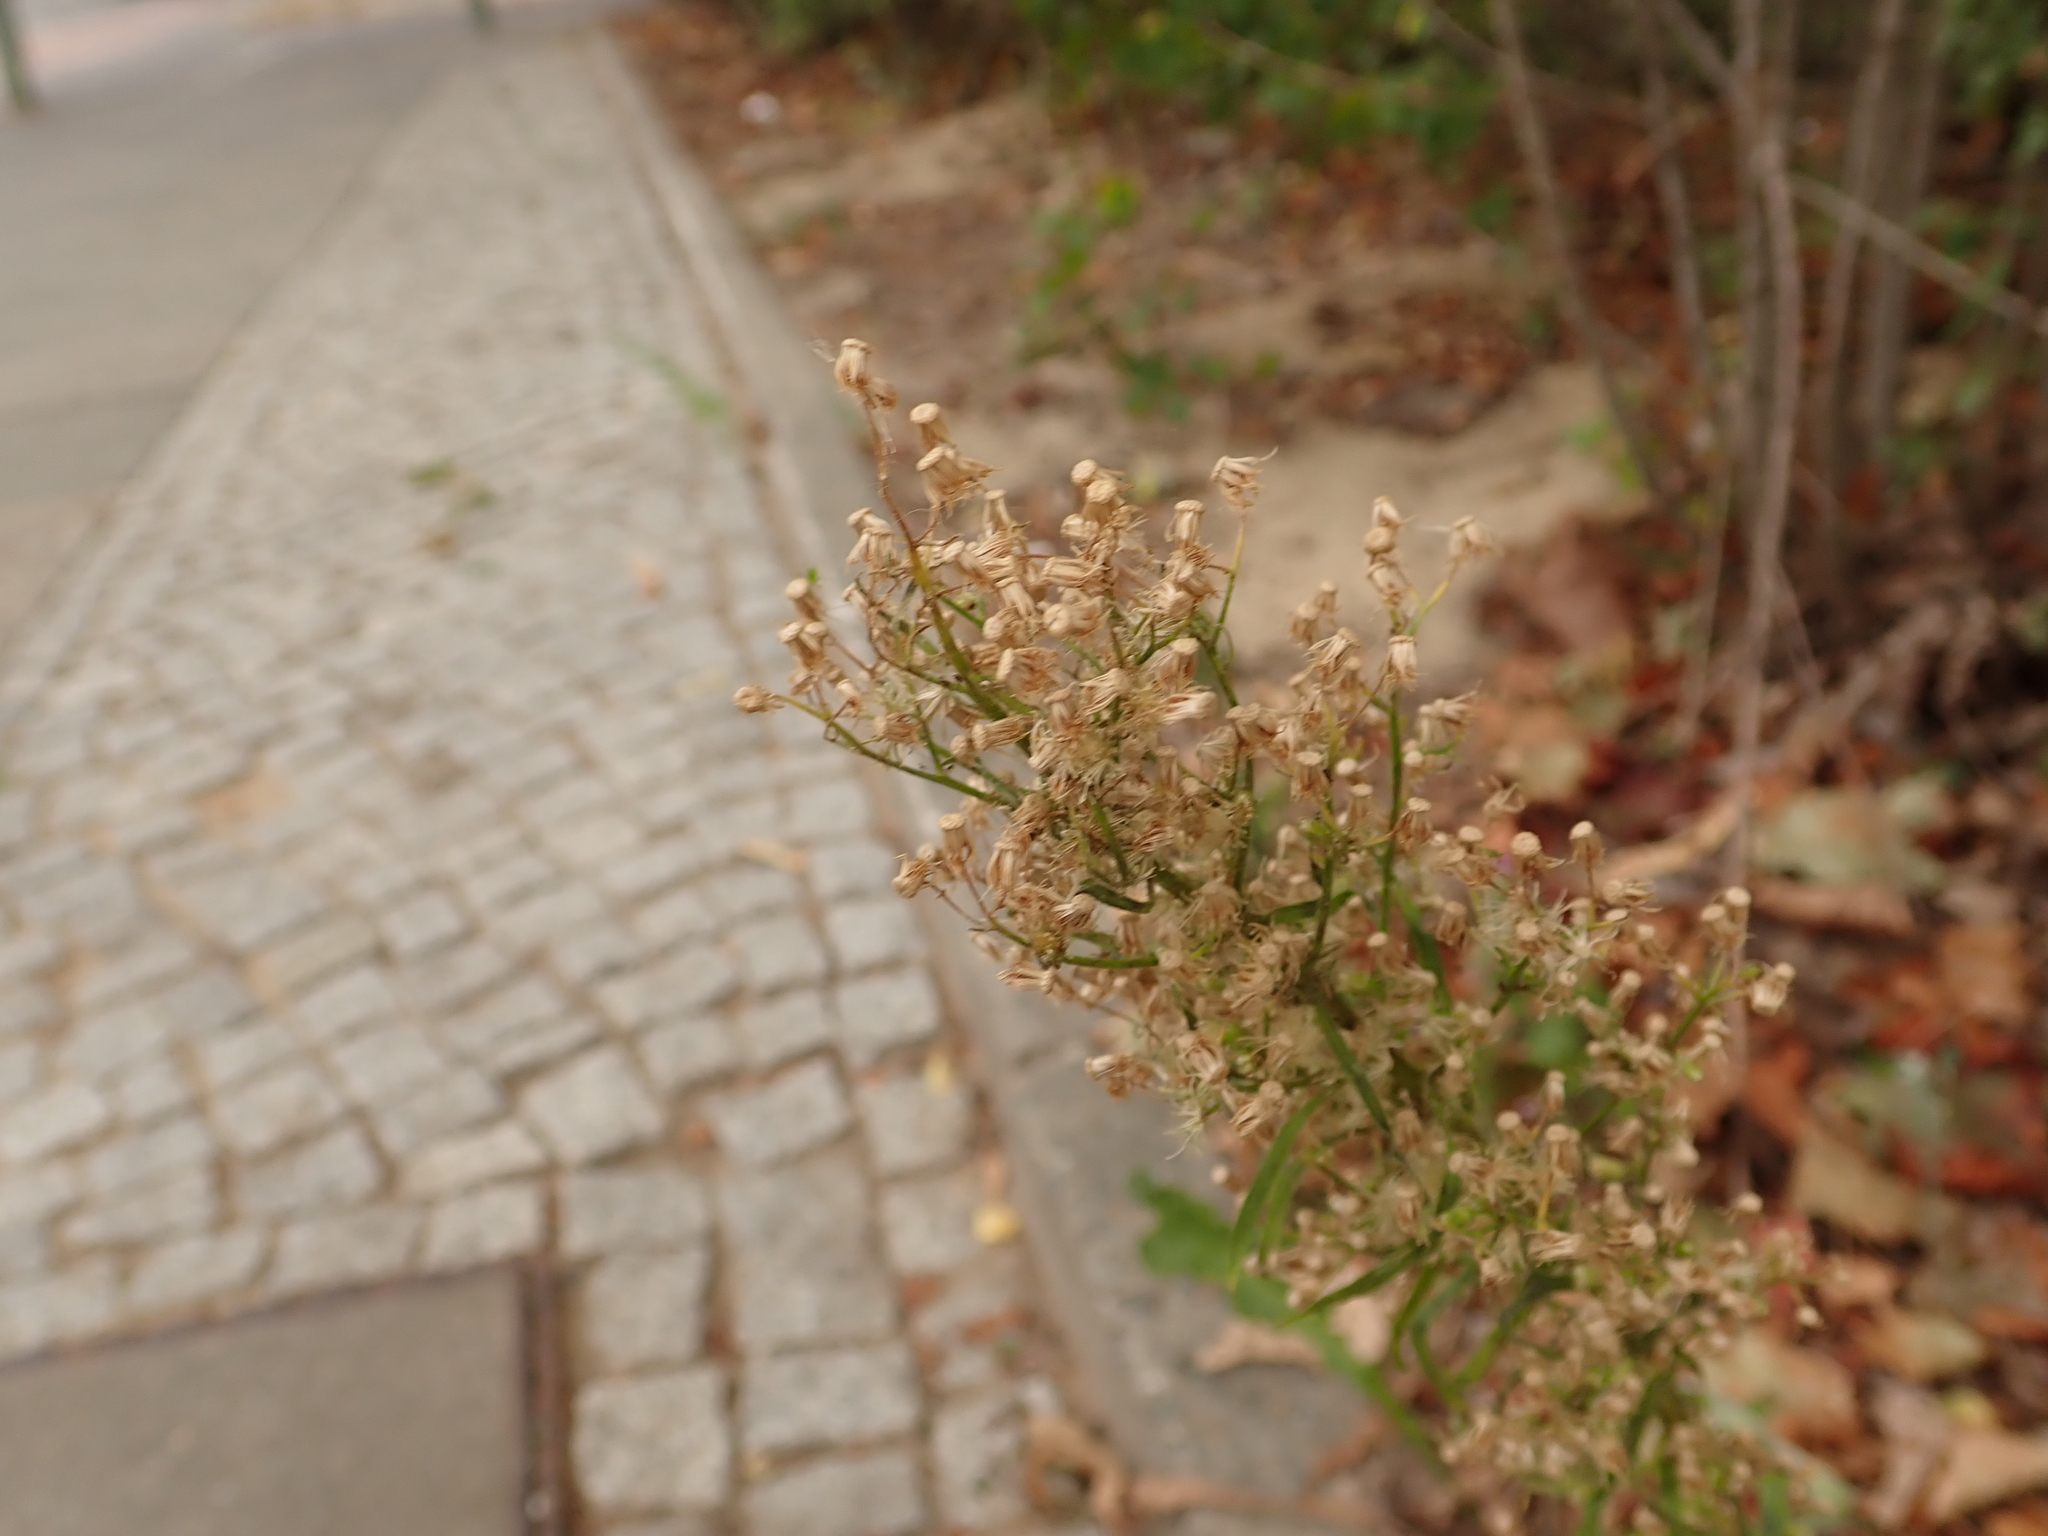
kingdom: Plantae
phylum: Tracheophyta
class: Magnoliopsida
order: Asterales
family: Asteraceae
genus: Erigeron
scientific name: Erigeron canadensis
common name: Canadian fleabane
